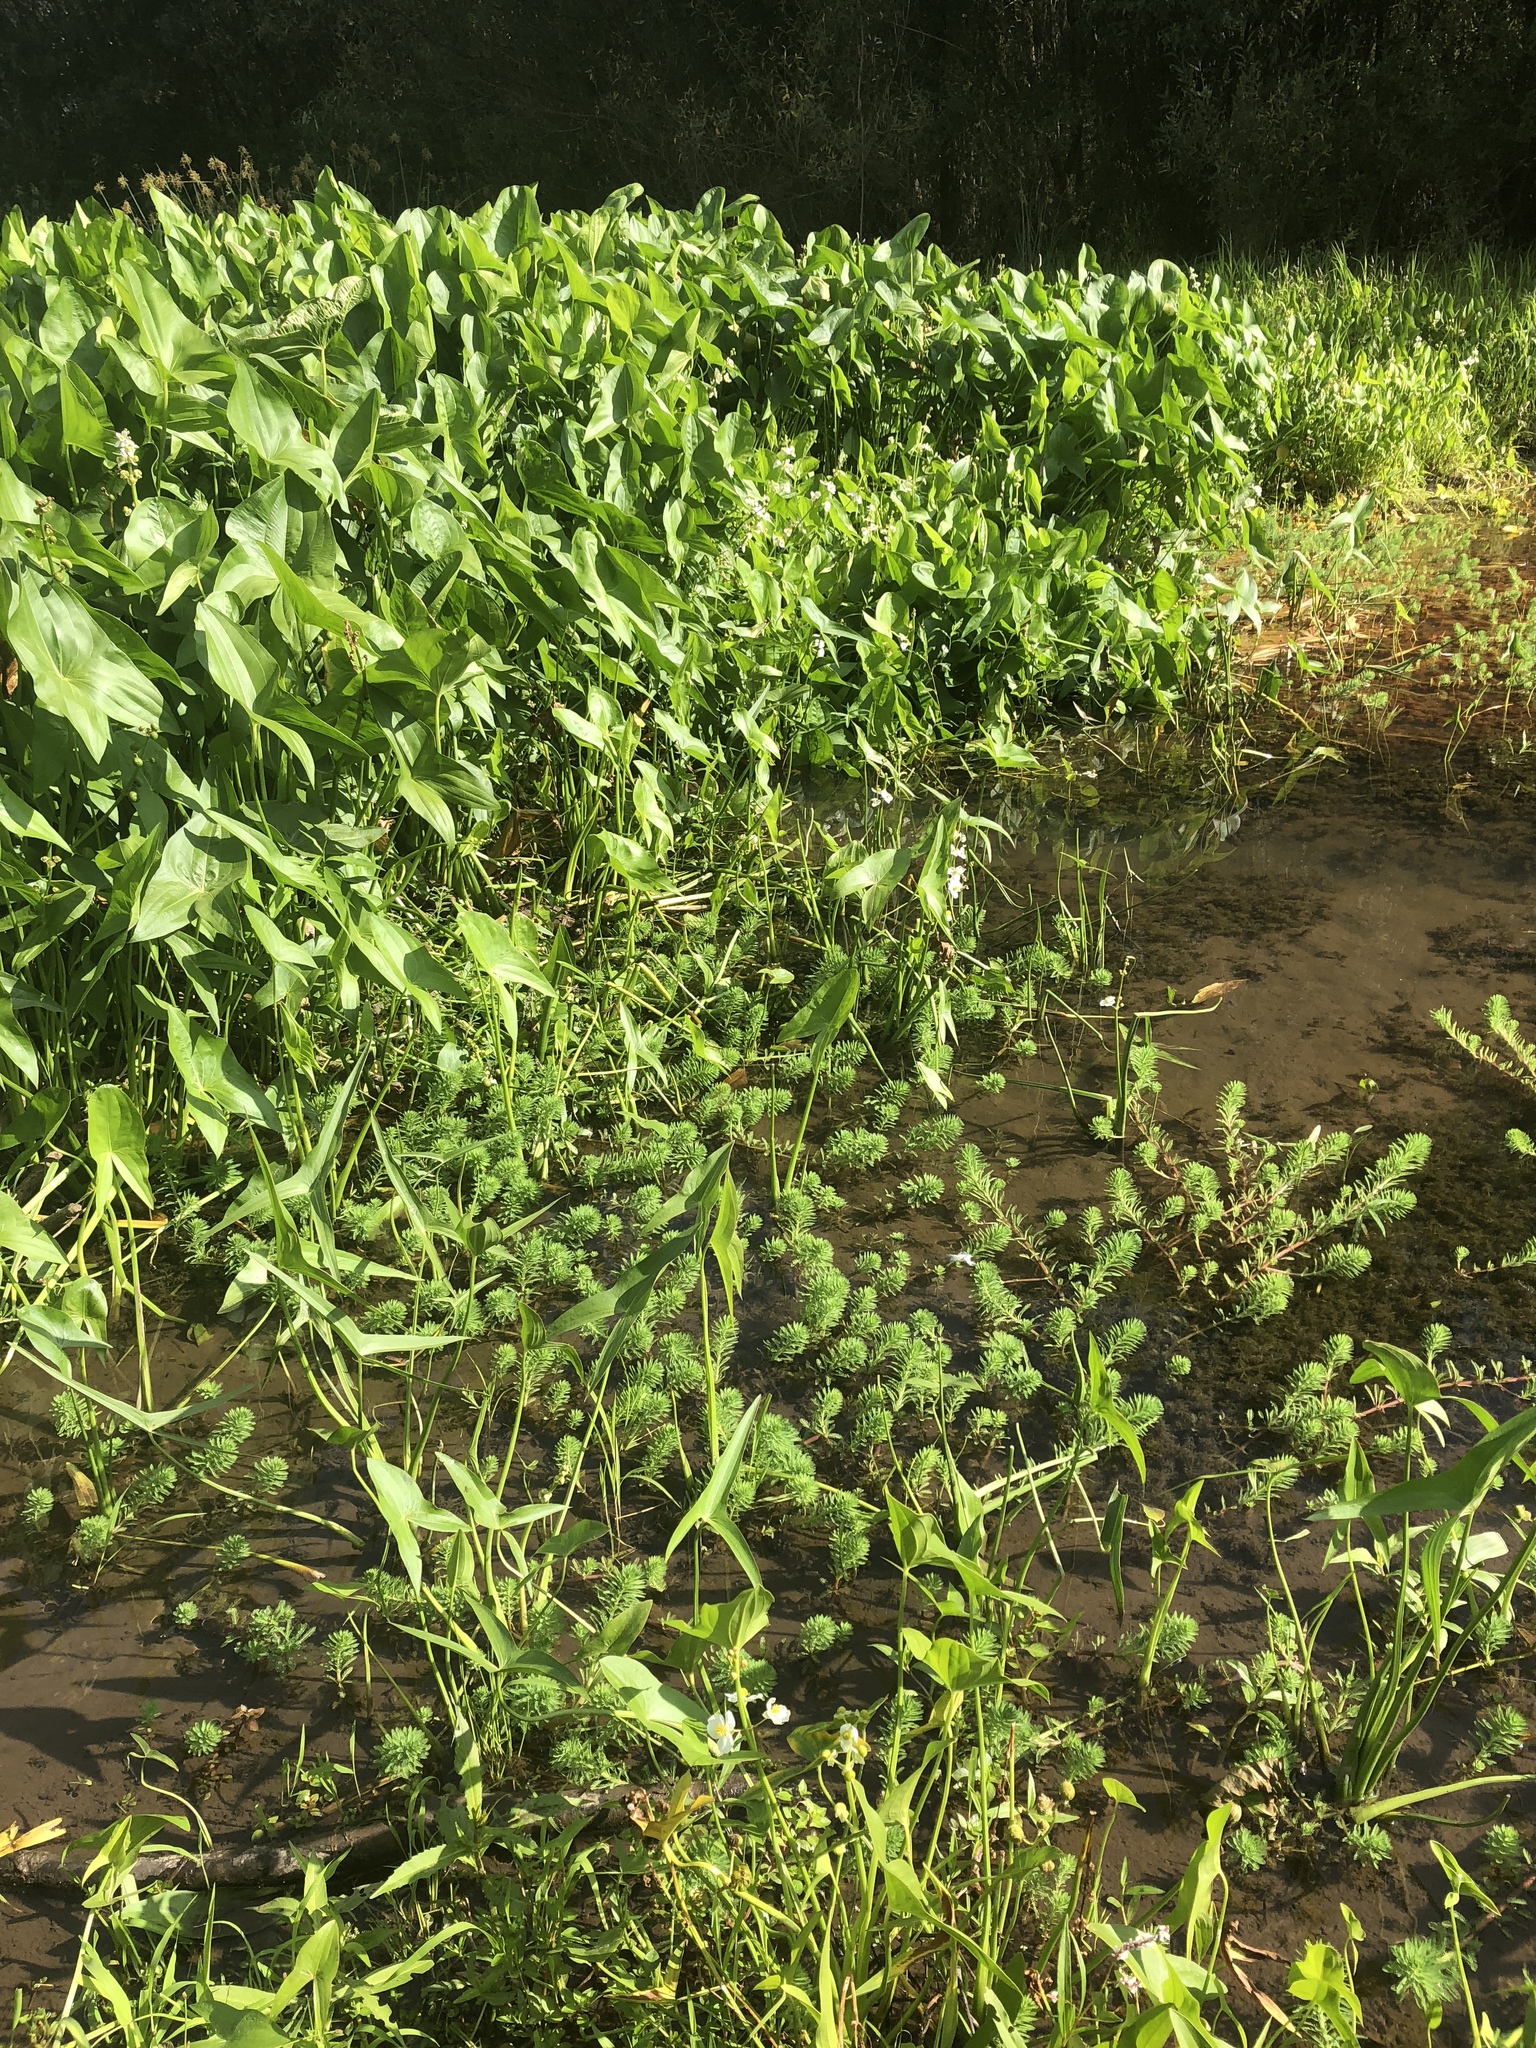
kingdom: Plantae
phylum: Tracheophyta
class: Magnoliopsida
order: Saxifragales
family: Haloragaceae
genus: Myriophyllum
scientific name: Myriophyllum aquaticum
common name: Parrot's feather
